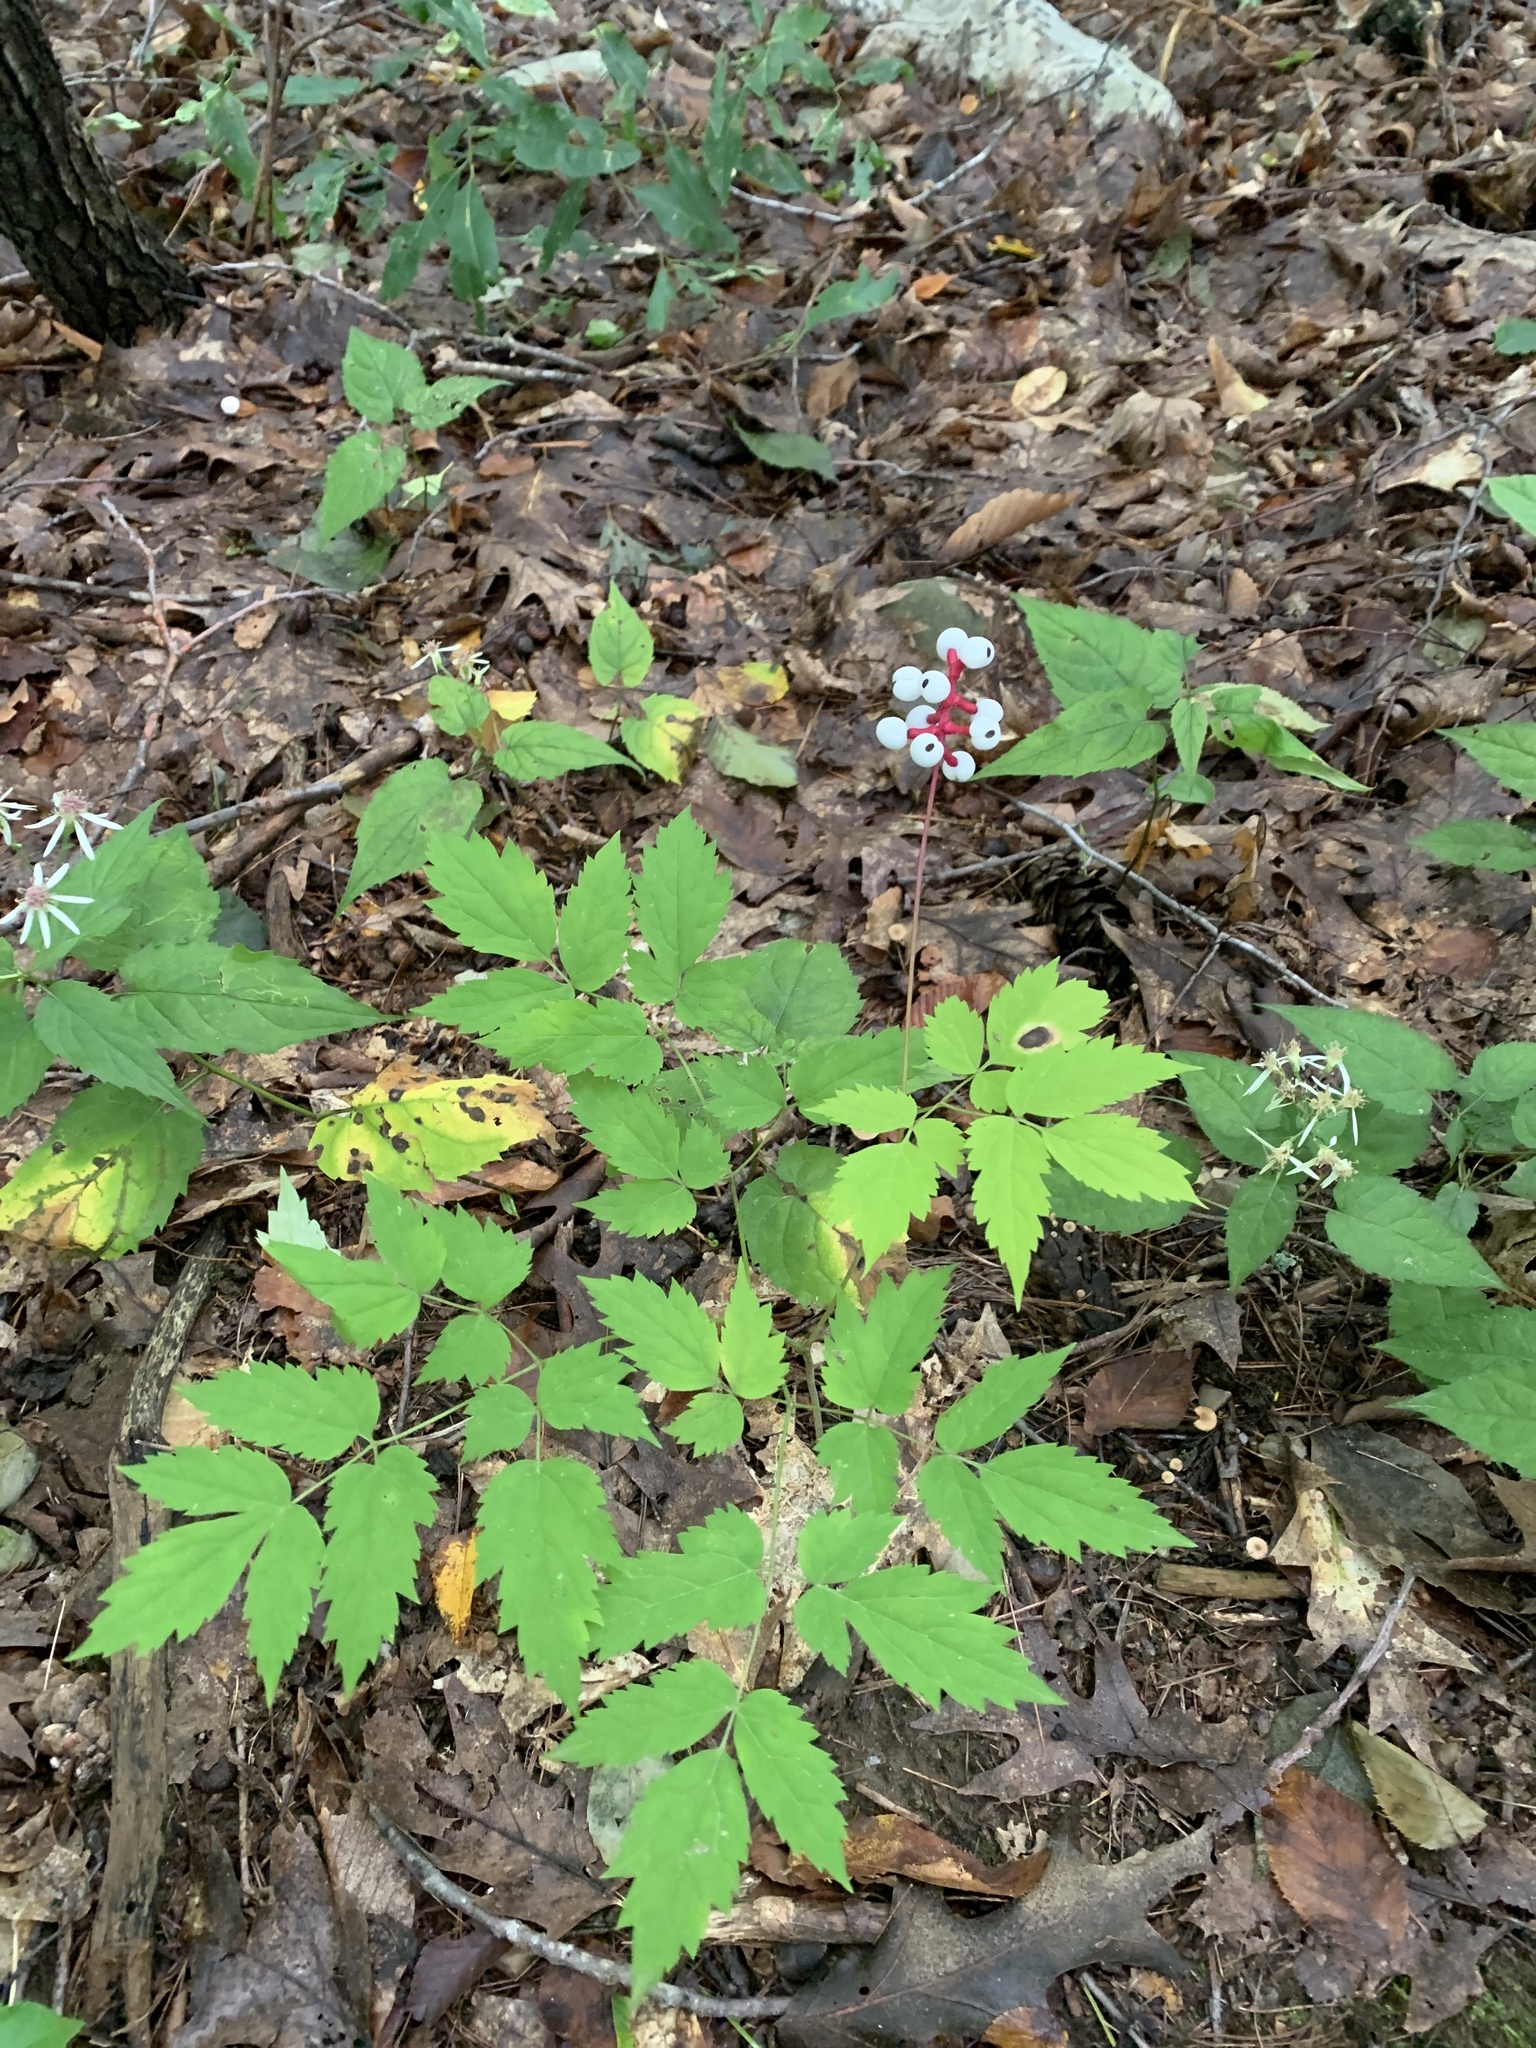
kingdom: Plantae
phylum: Tracheophyta
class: Magnoliopsida
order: Ranunculales
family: Ranunculaceae
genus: Actaea
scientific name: Actaea pachypoda
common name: Doll's-eyes
